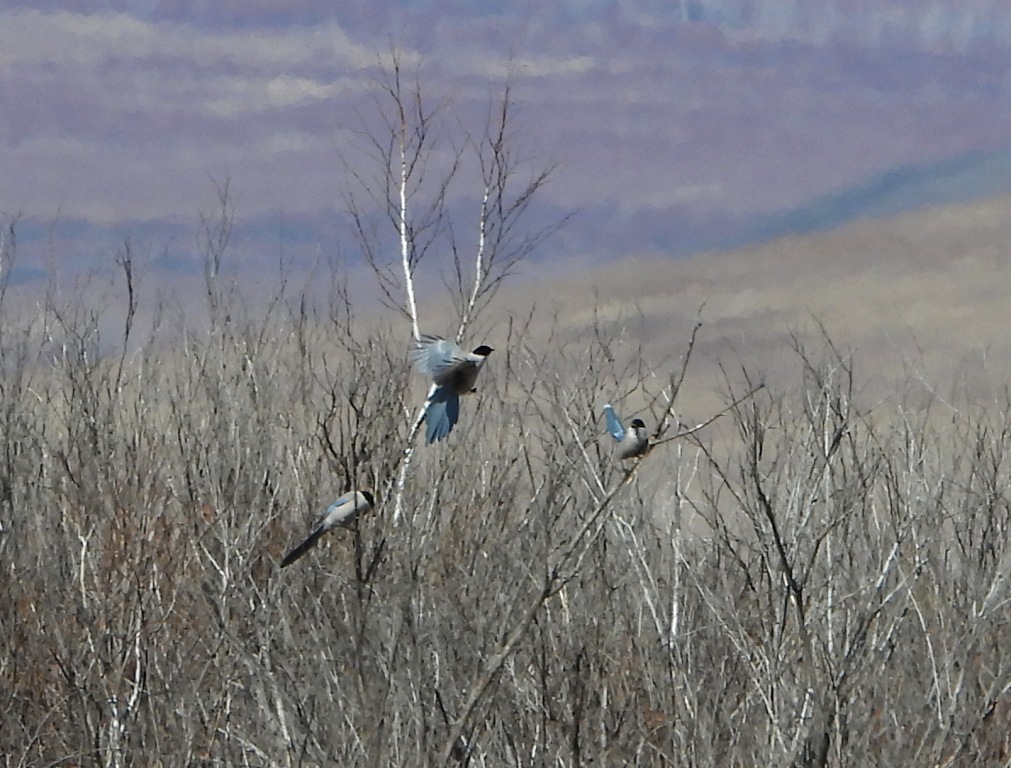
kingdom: Animalia
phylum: Chordata
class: Aves
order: Passeriformes
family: Corvidae
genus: Cyanopica
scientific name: Cyanopica cyanus
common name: Azure-winged magpie
